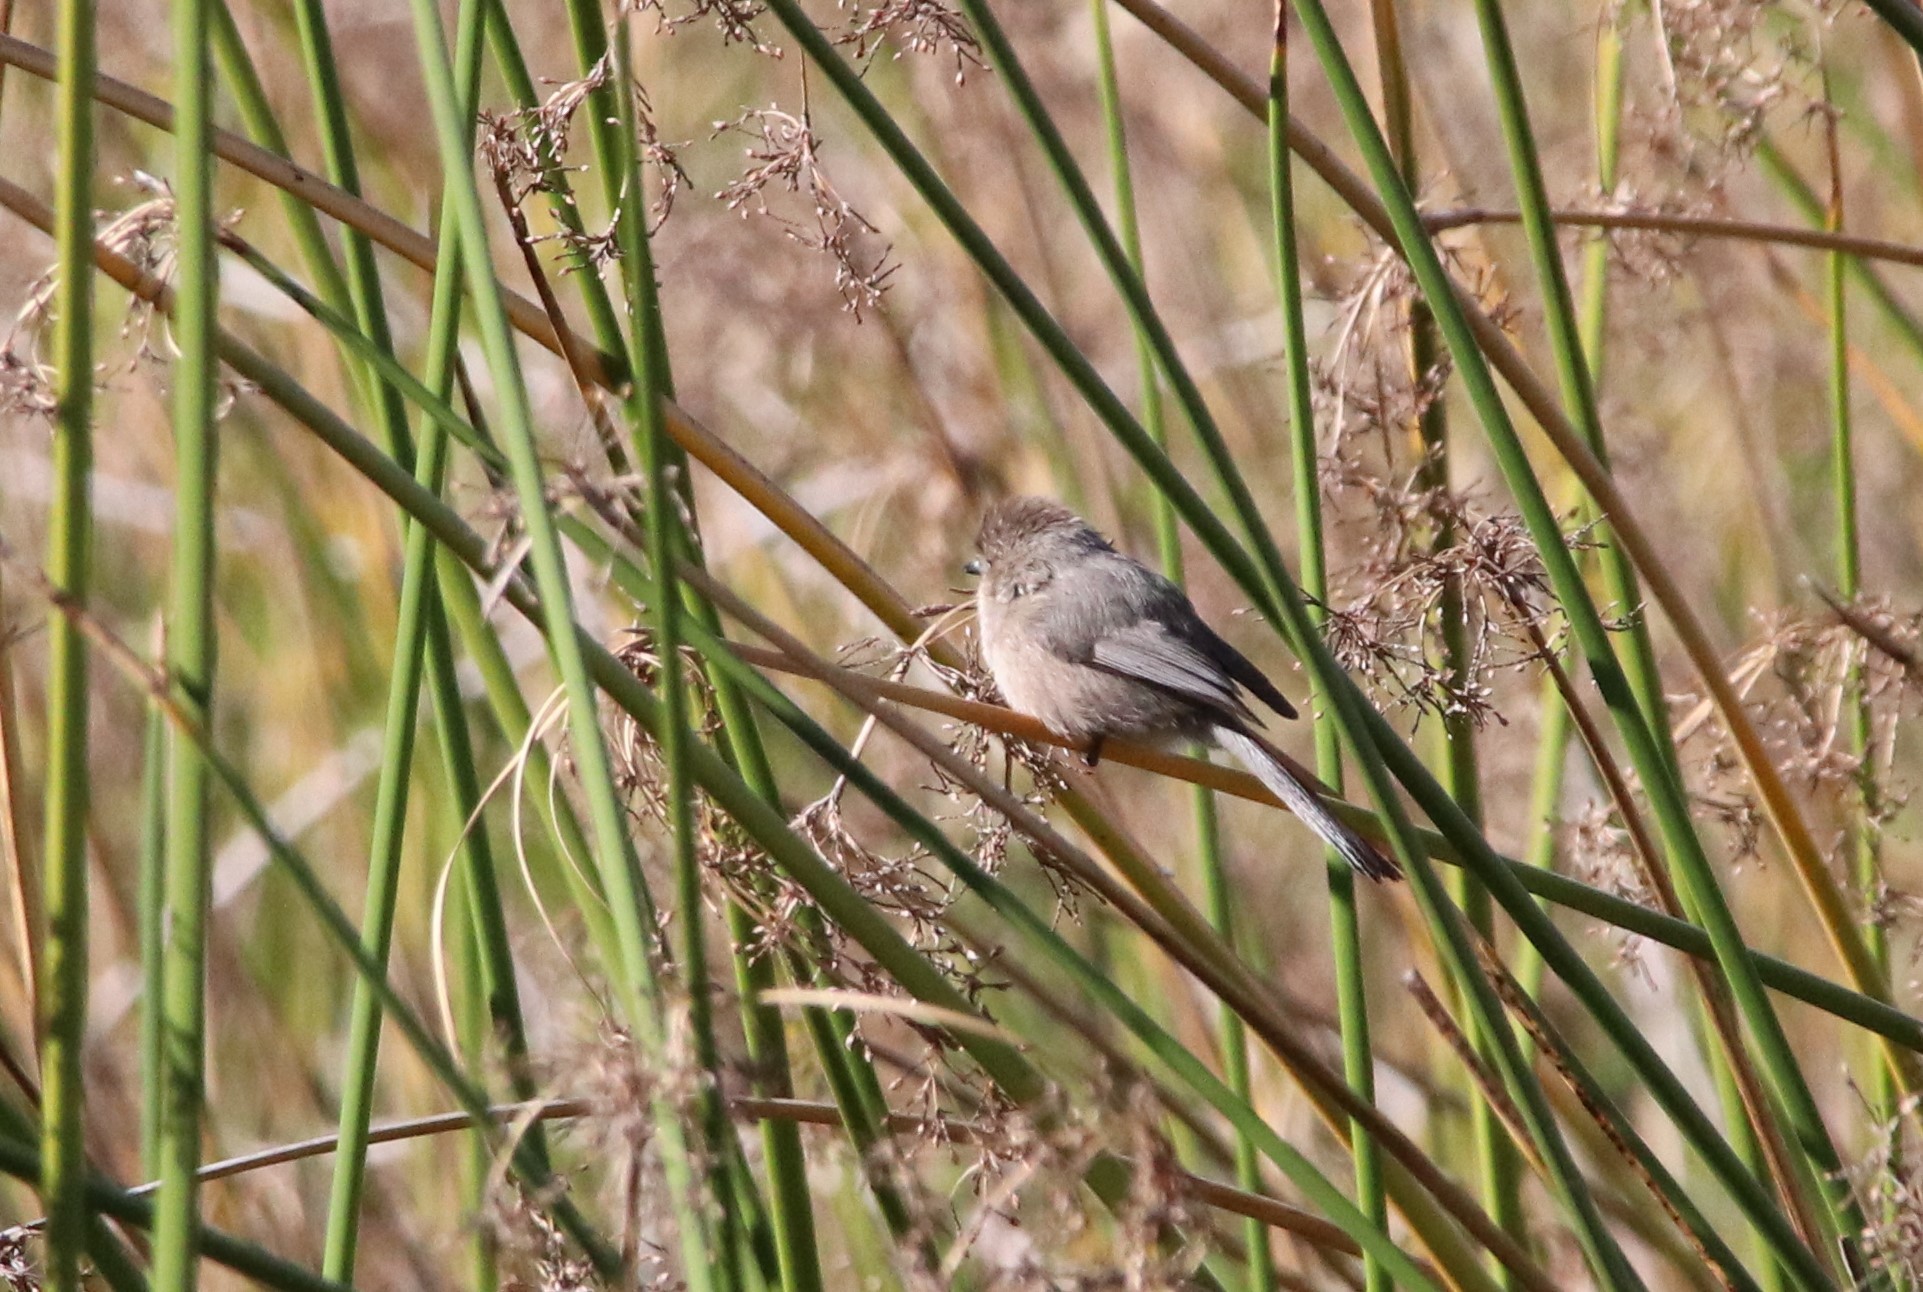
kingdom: Animalia
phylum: Chordata
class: Aves
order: Passeriformes
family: Aegithalidae
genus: Psaltriparus
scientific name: Psaltriparus minimus
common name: American bushtit
